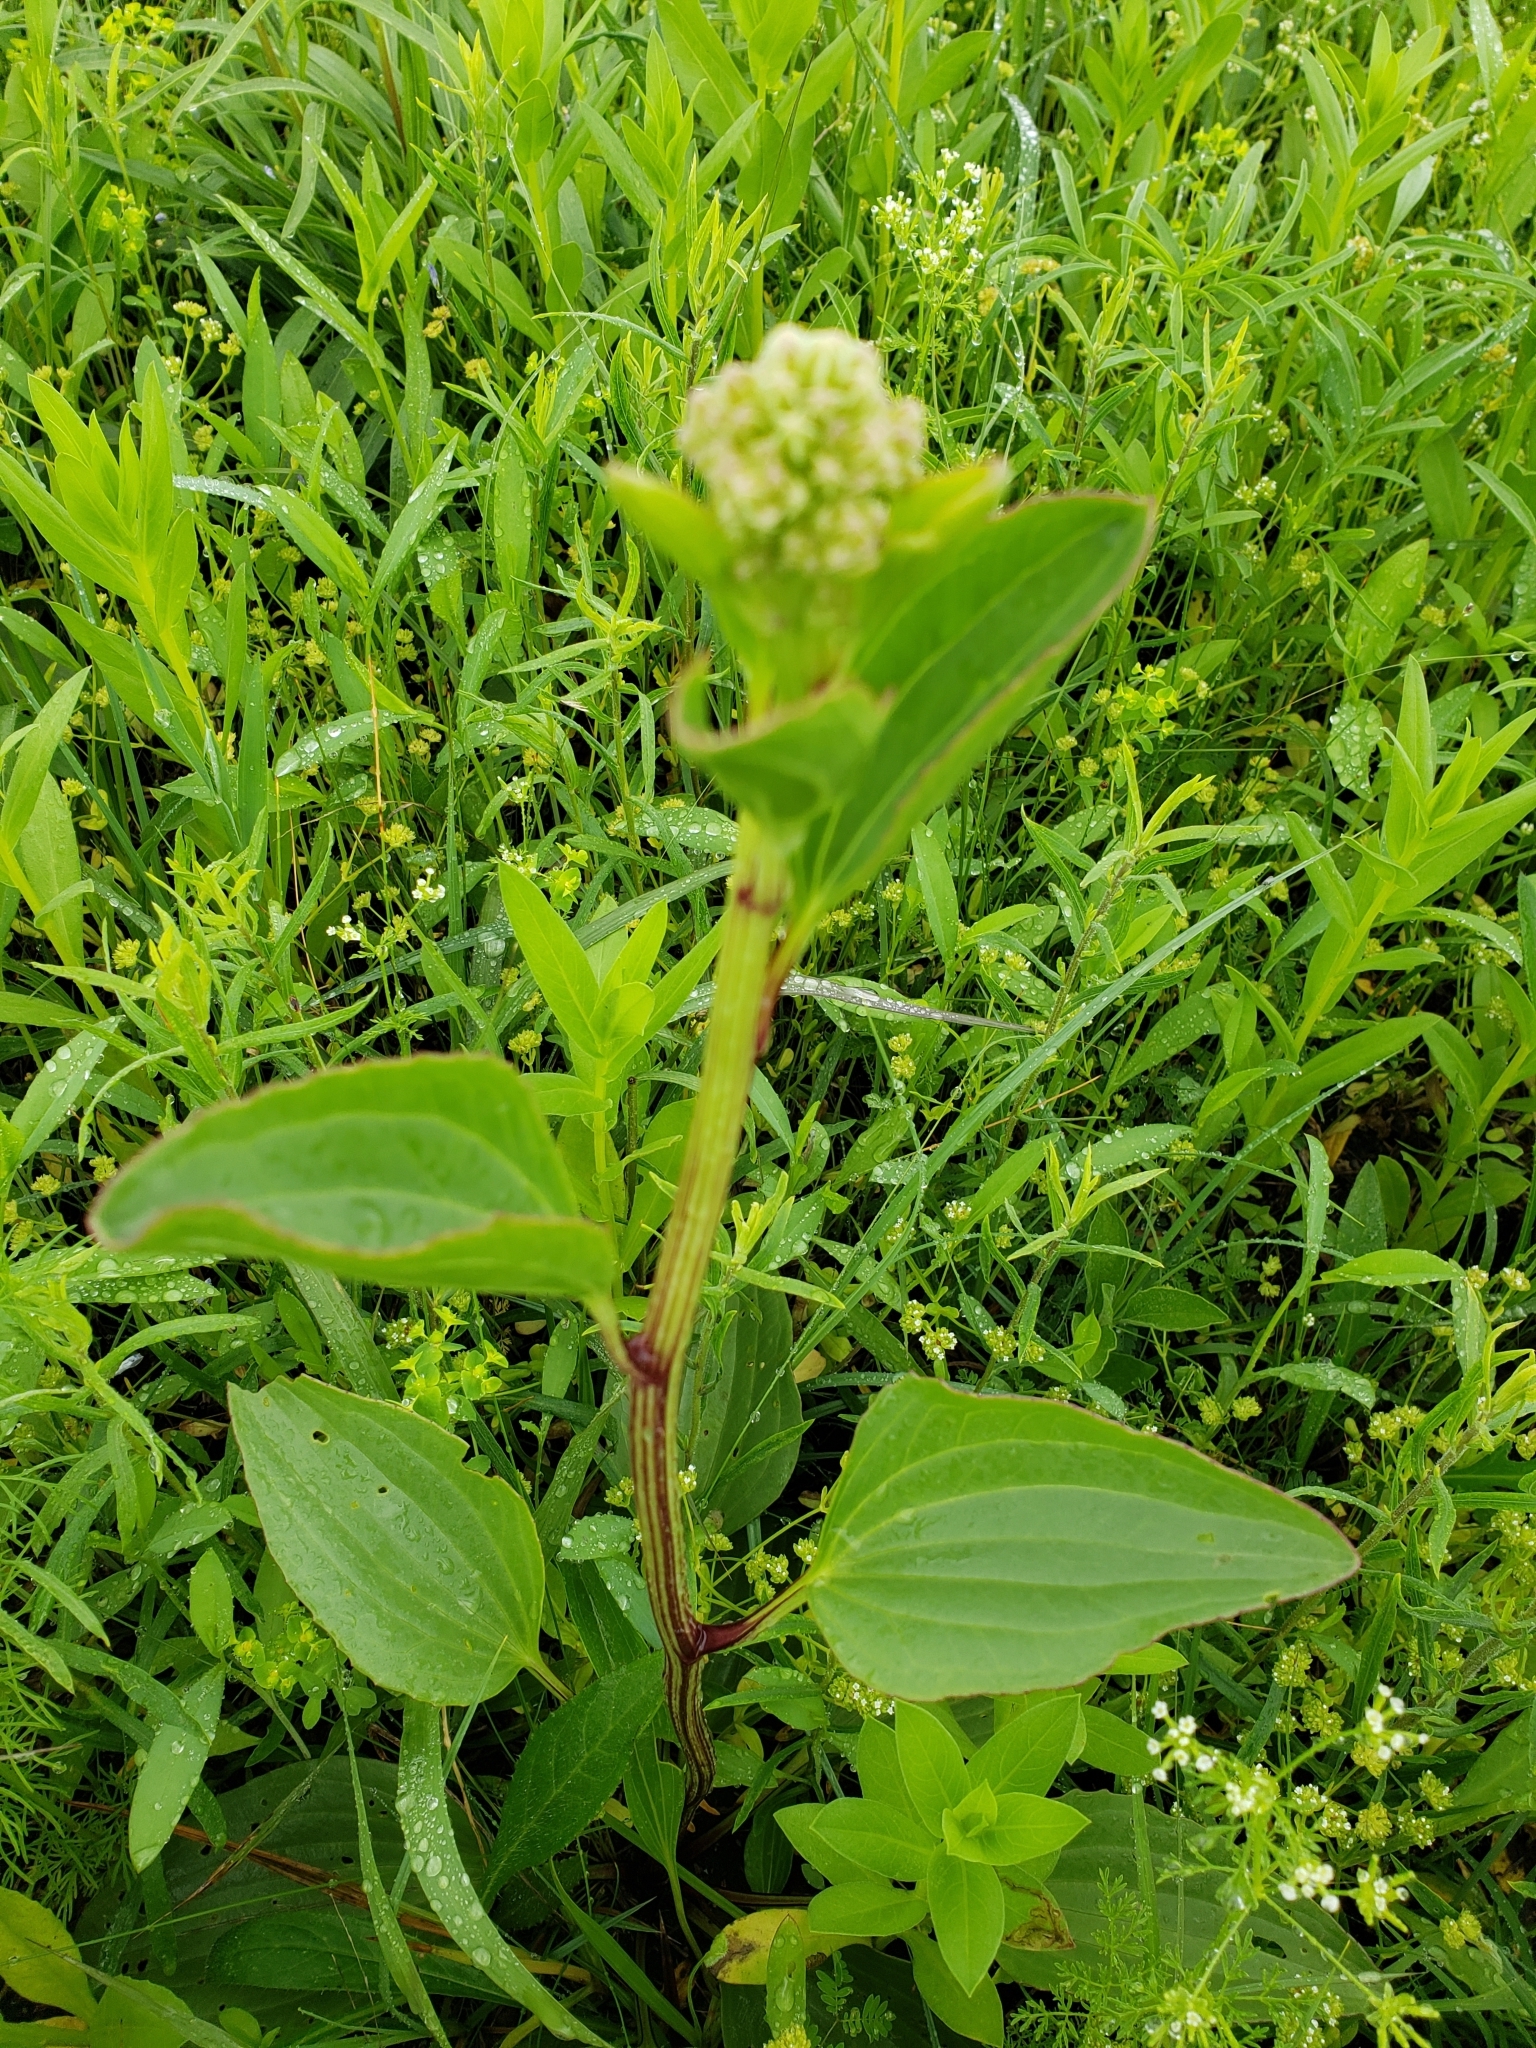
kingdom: Plantae
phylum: Tracheophyta
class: Magnoliopsida
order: Asterales
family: Asteraceae
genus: Arnoglossum
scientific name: Arnoglossum plantagineum
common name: Groove-stemmed indian-plantain
